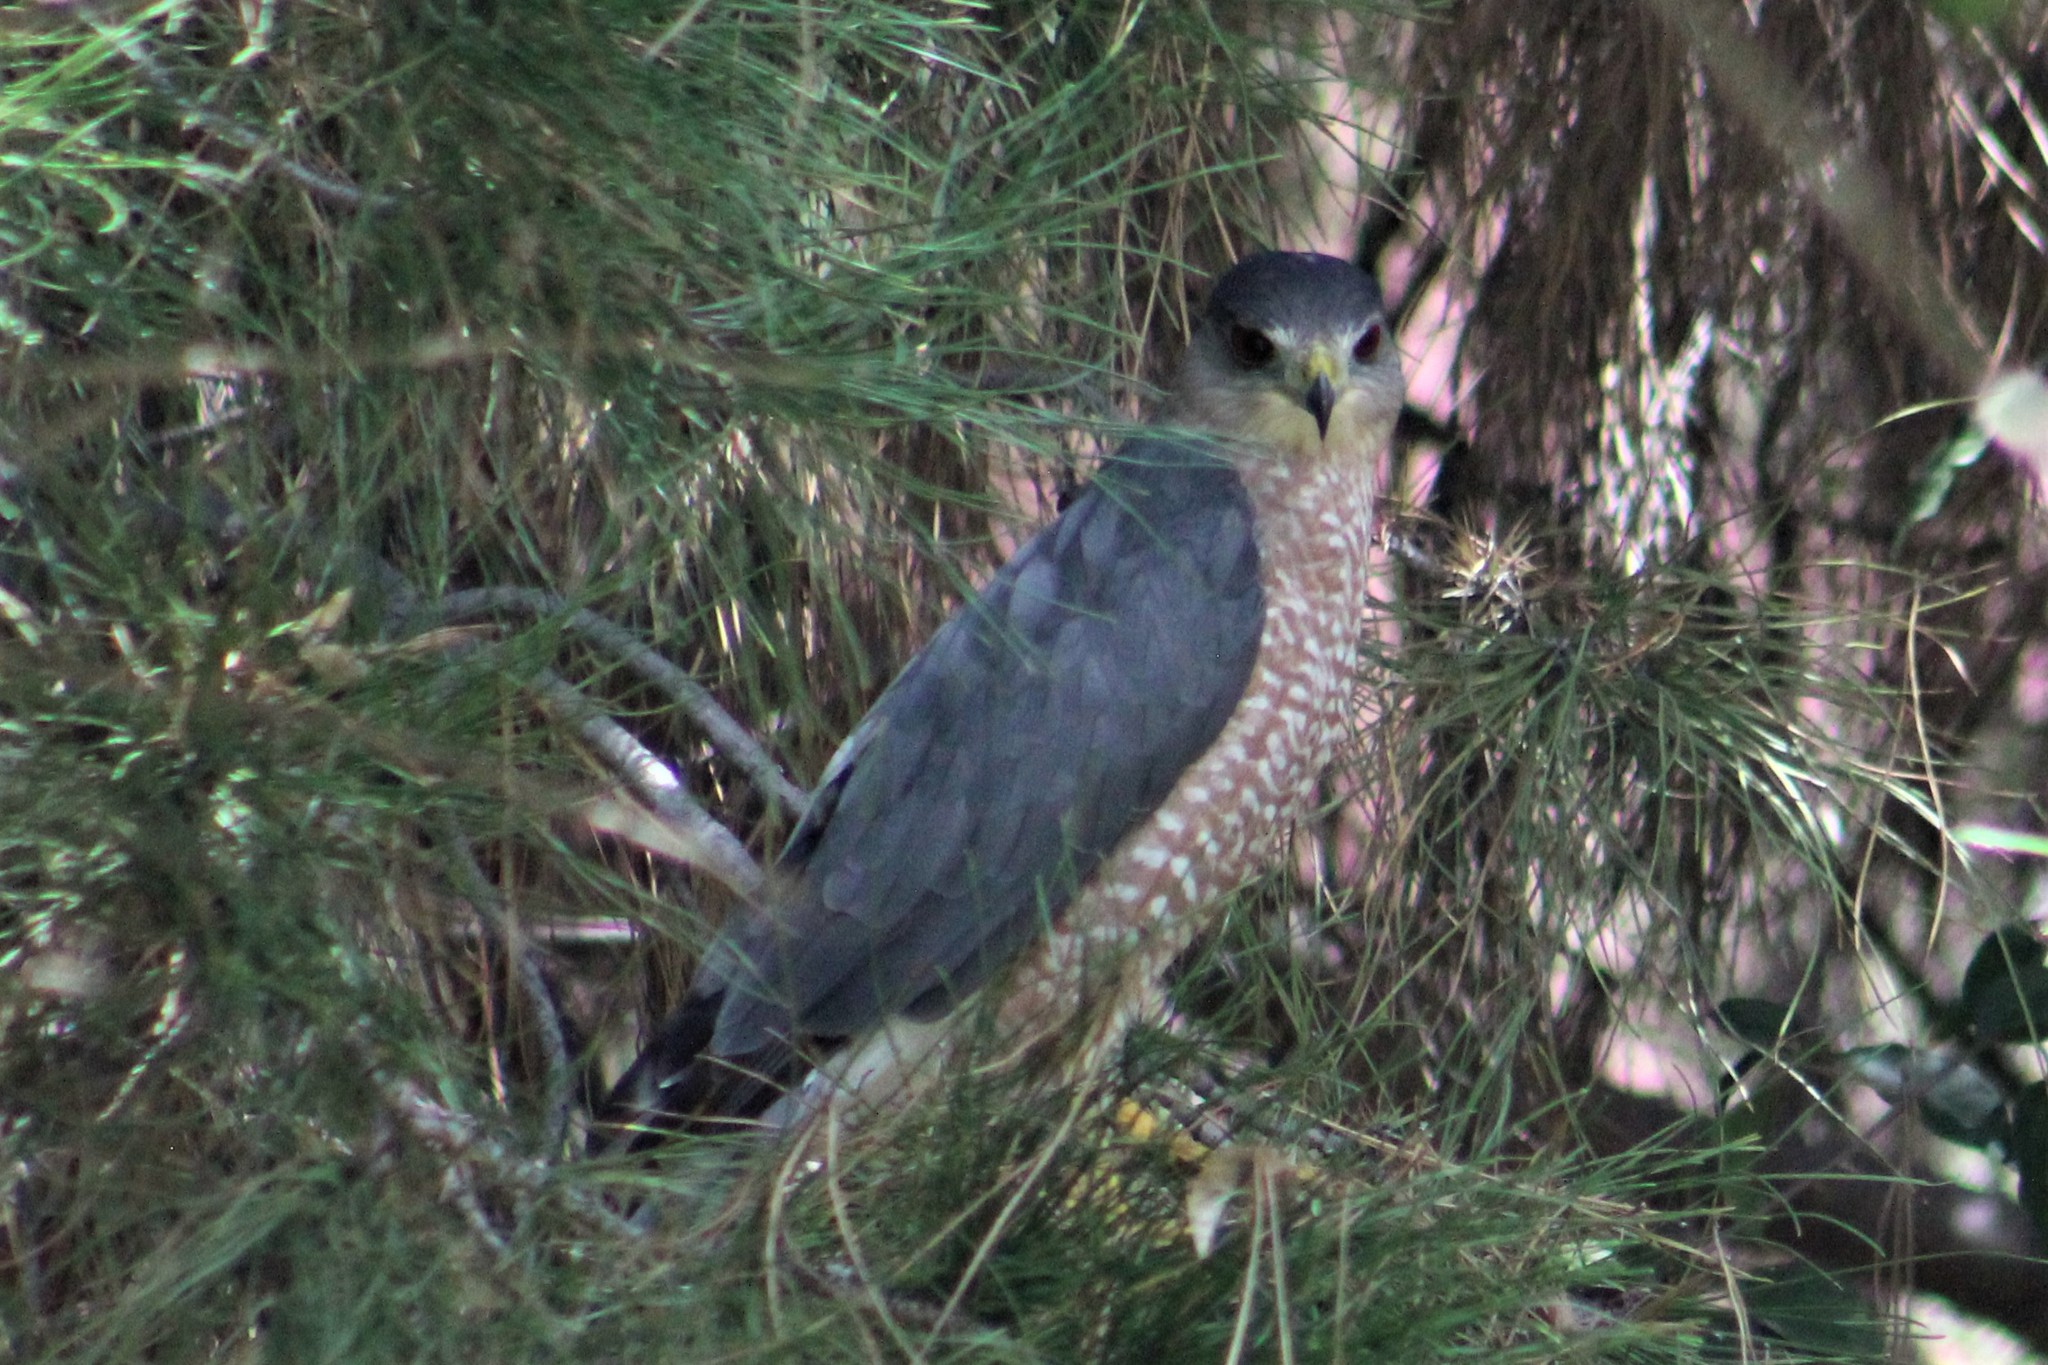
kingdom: Animalia
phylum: Chordata
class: Aves
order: Accipitriformes
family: Accipitridae
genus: Accipiter
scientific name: Accipiter cooperii
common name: Cooper's hawk
